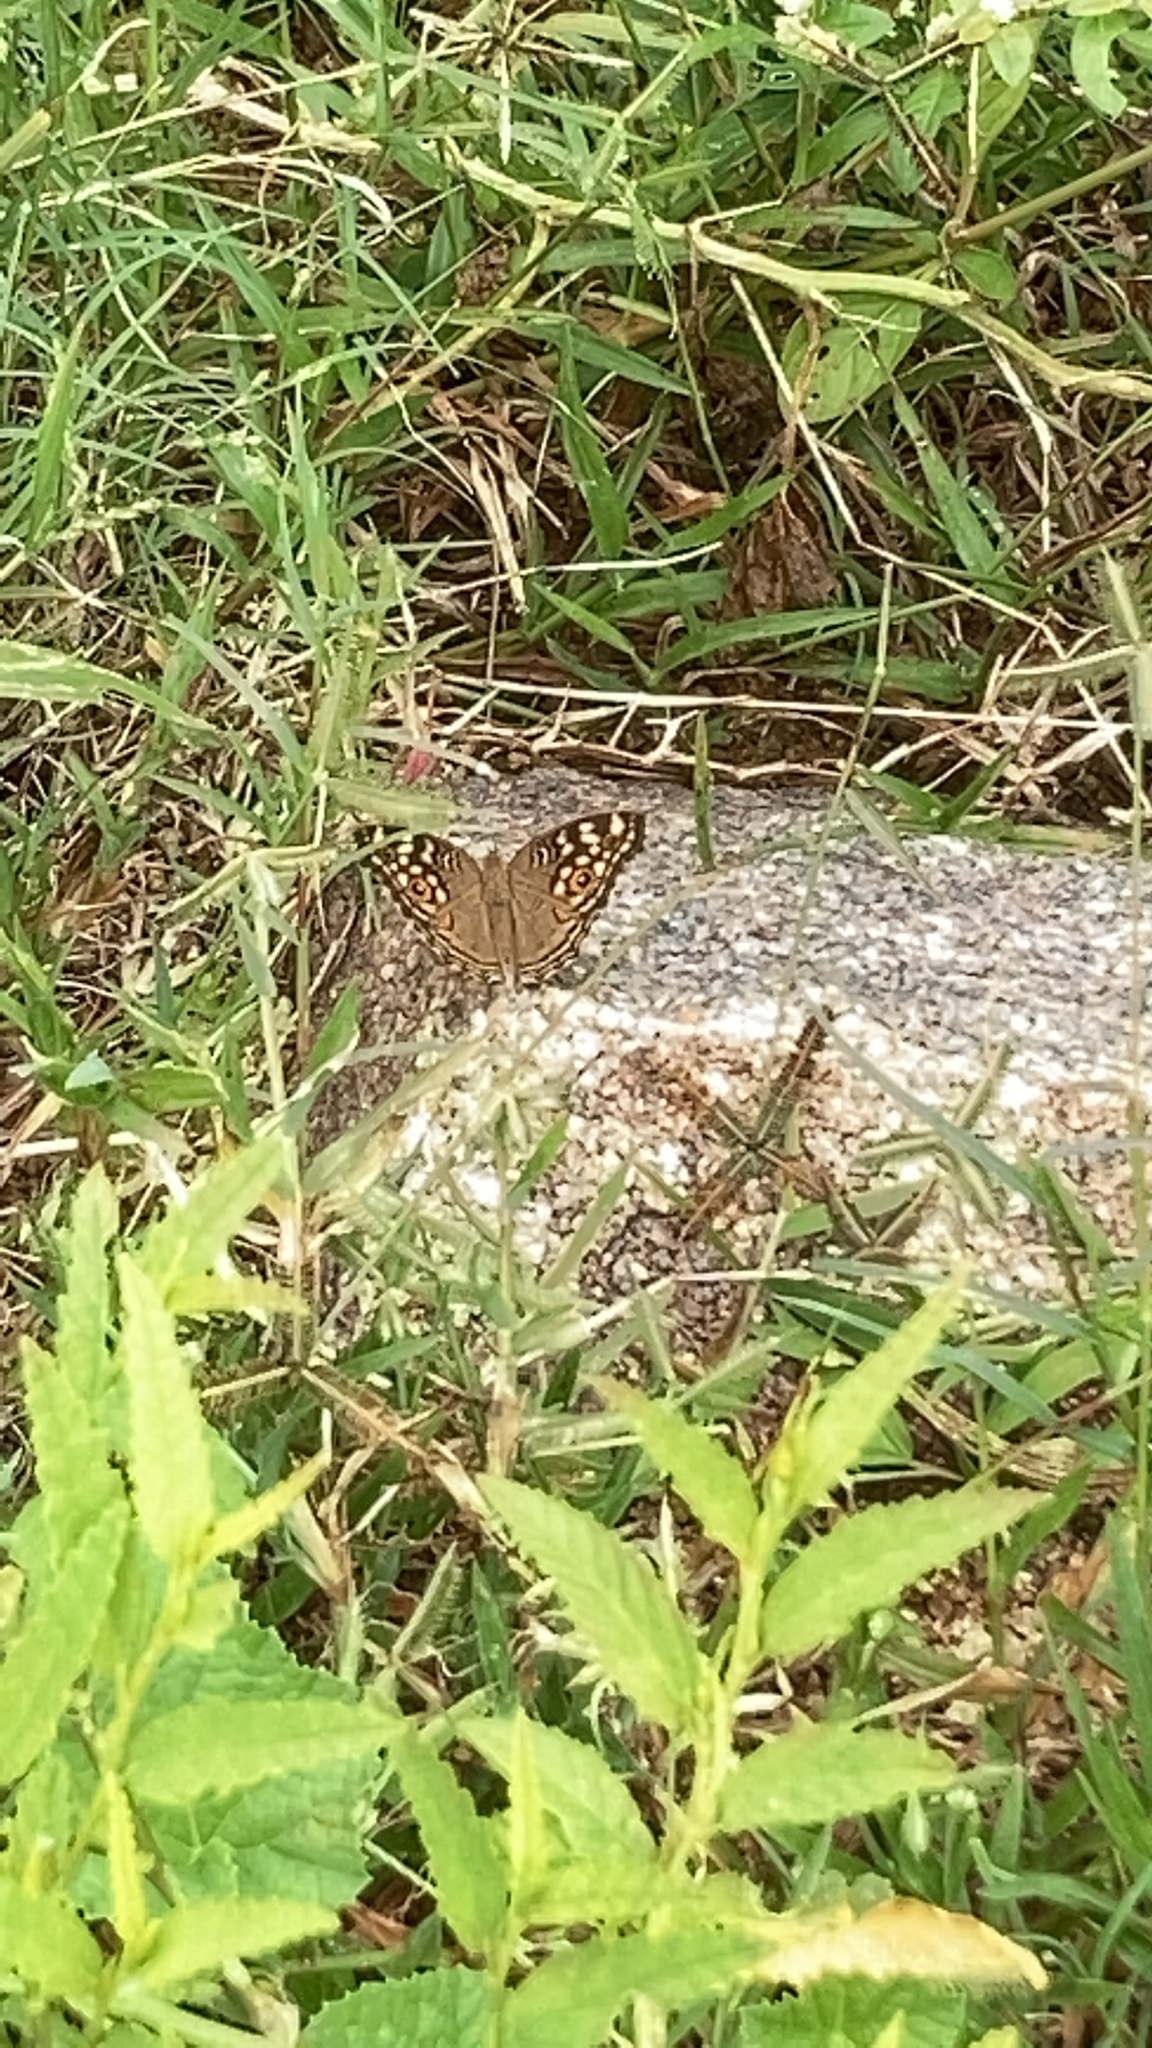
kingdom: Animalia
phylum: Arthropoda
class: Insecta
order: Lepidoptera
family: Nymphalidae
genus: Junonia
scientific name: Junonia lemonias
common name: Lemon pansy
